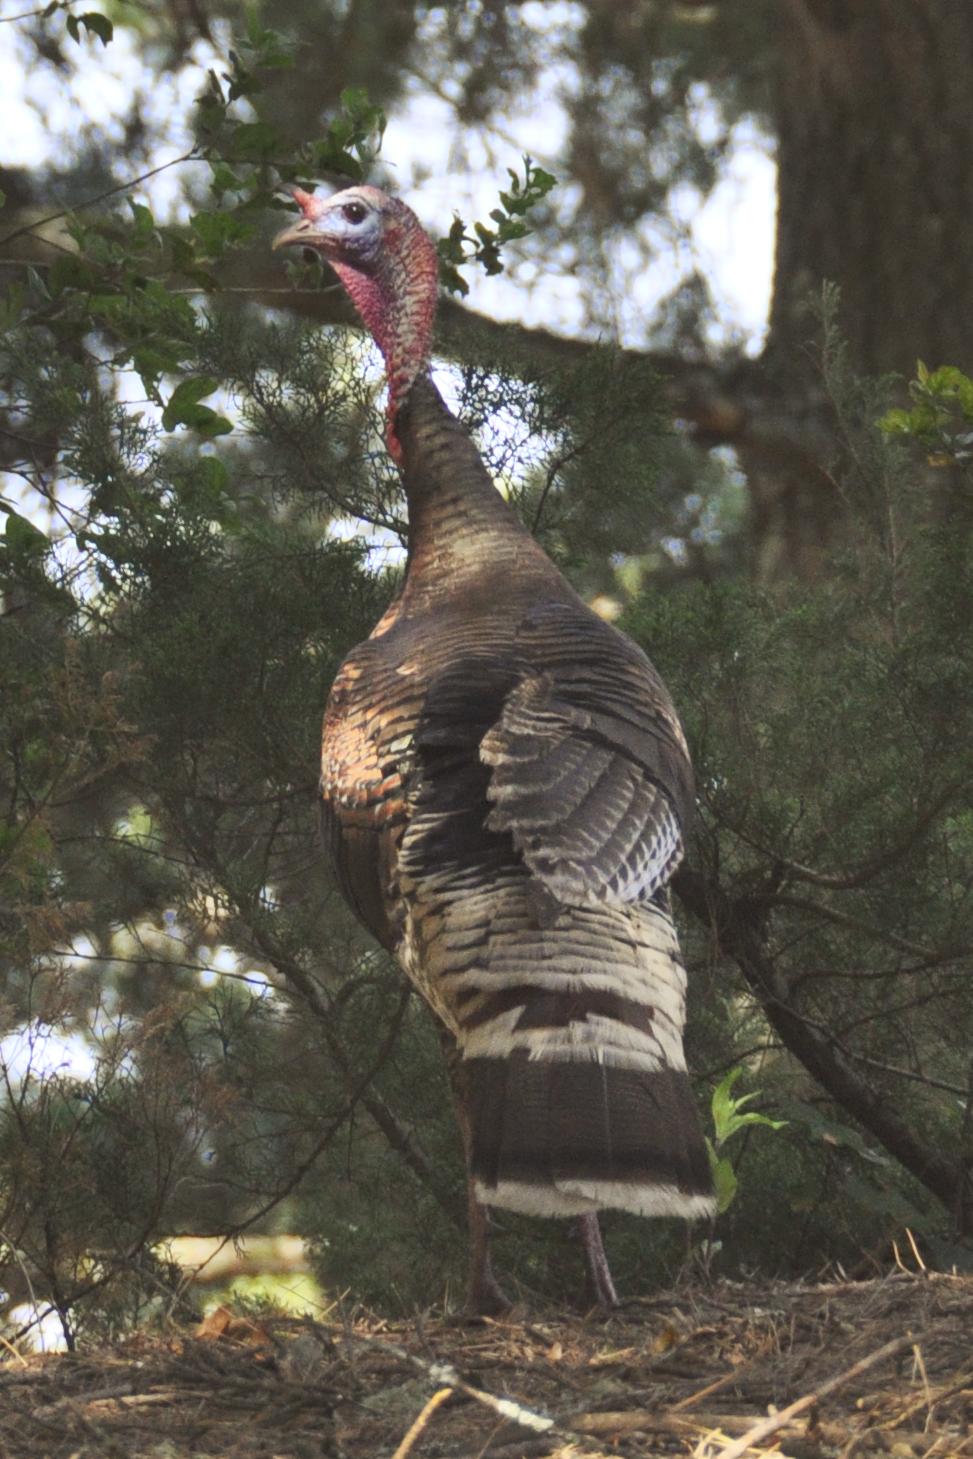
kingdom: Animalia
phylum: Chordata
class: Aves
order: Galliformes
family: Phasianidae
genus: Meleagris
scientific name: Meleagris gallopavo
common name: Wild turkey
